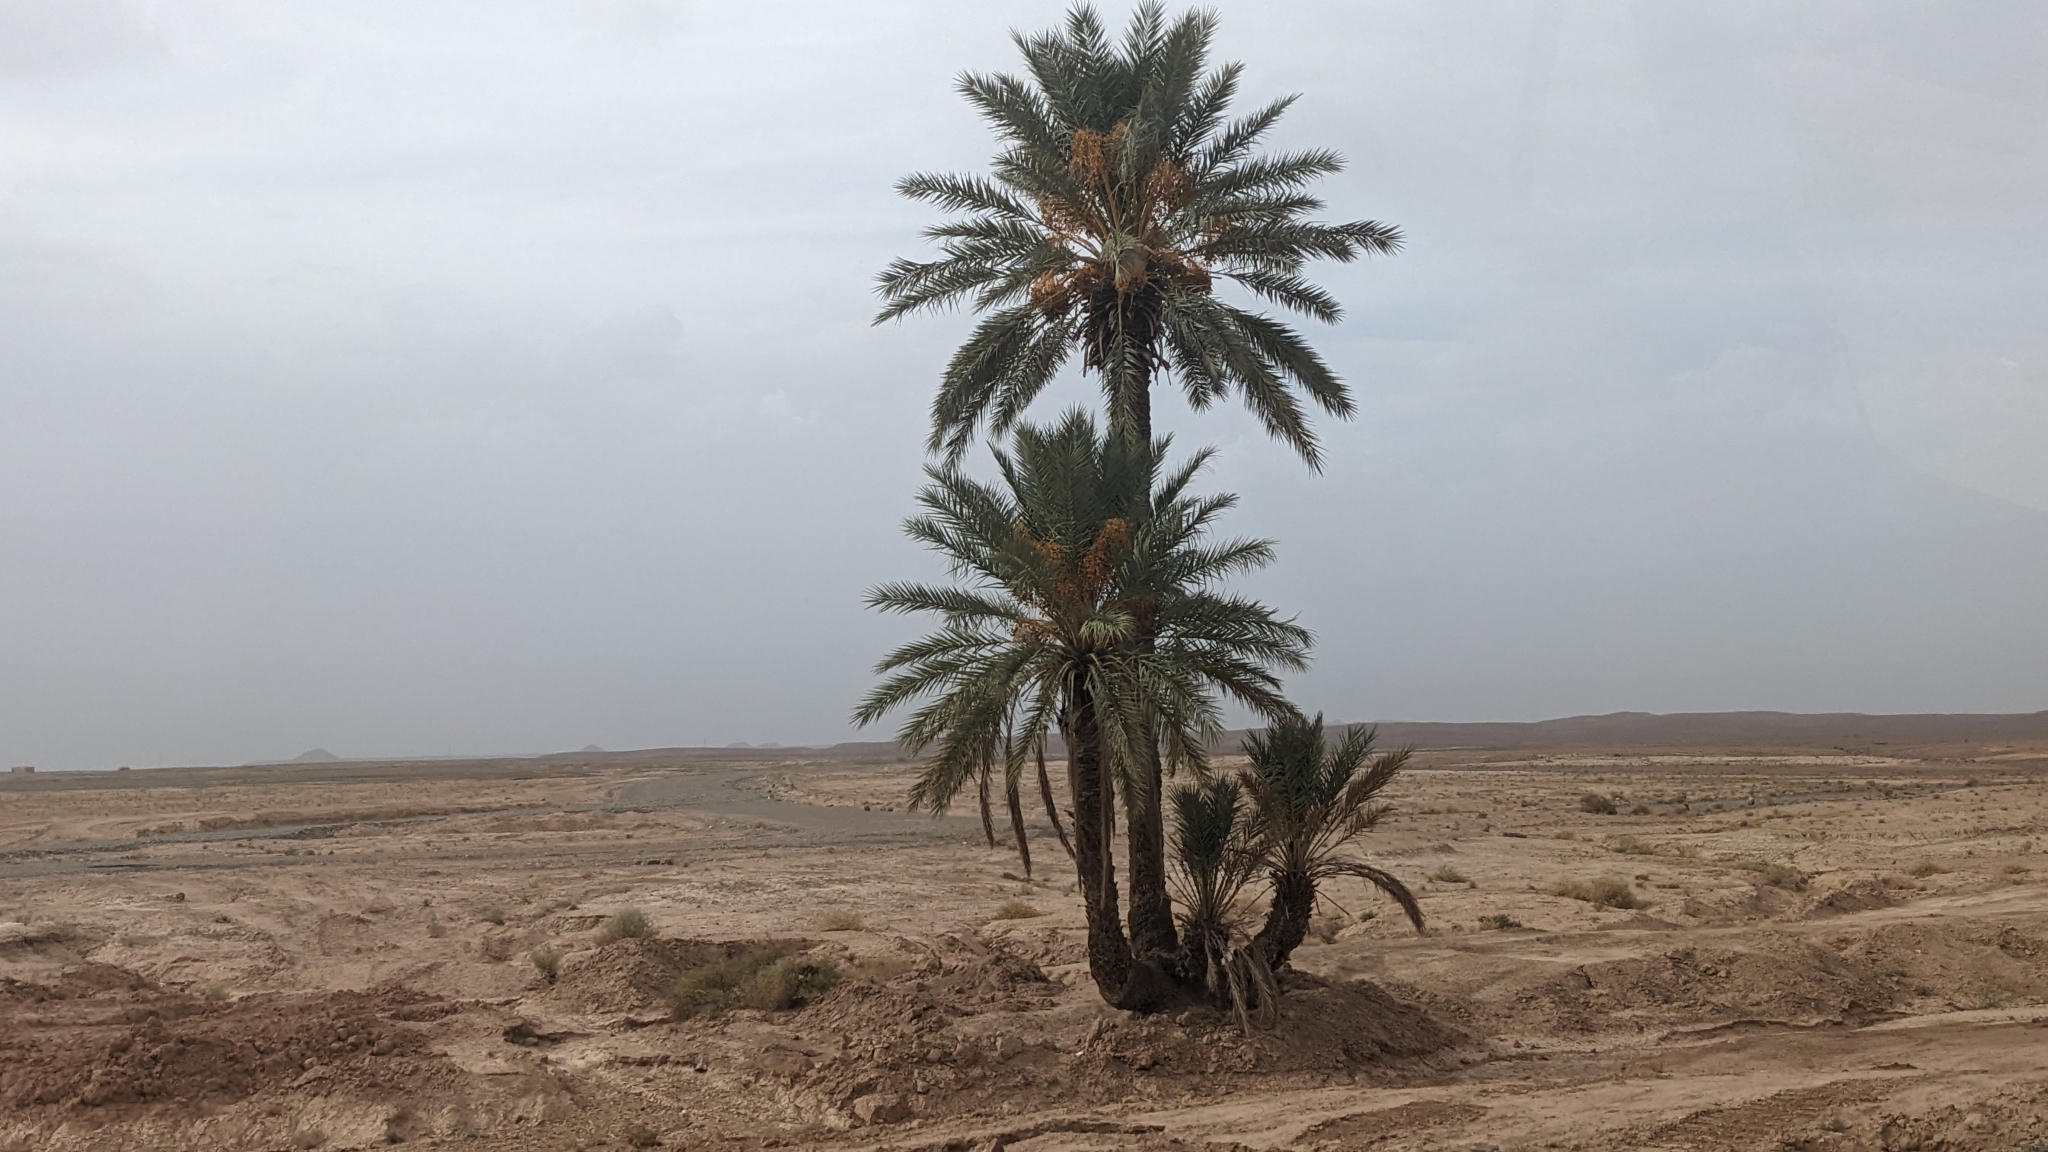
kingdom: Plantae
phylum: Tracheophyta
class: Liliopsida
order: Arecales
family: Arecaceae
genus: Phoenix
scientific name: Phoenix dactylifera
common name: Date palm
